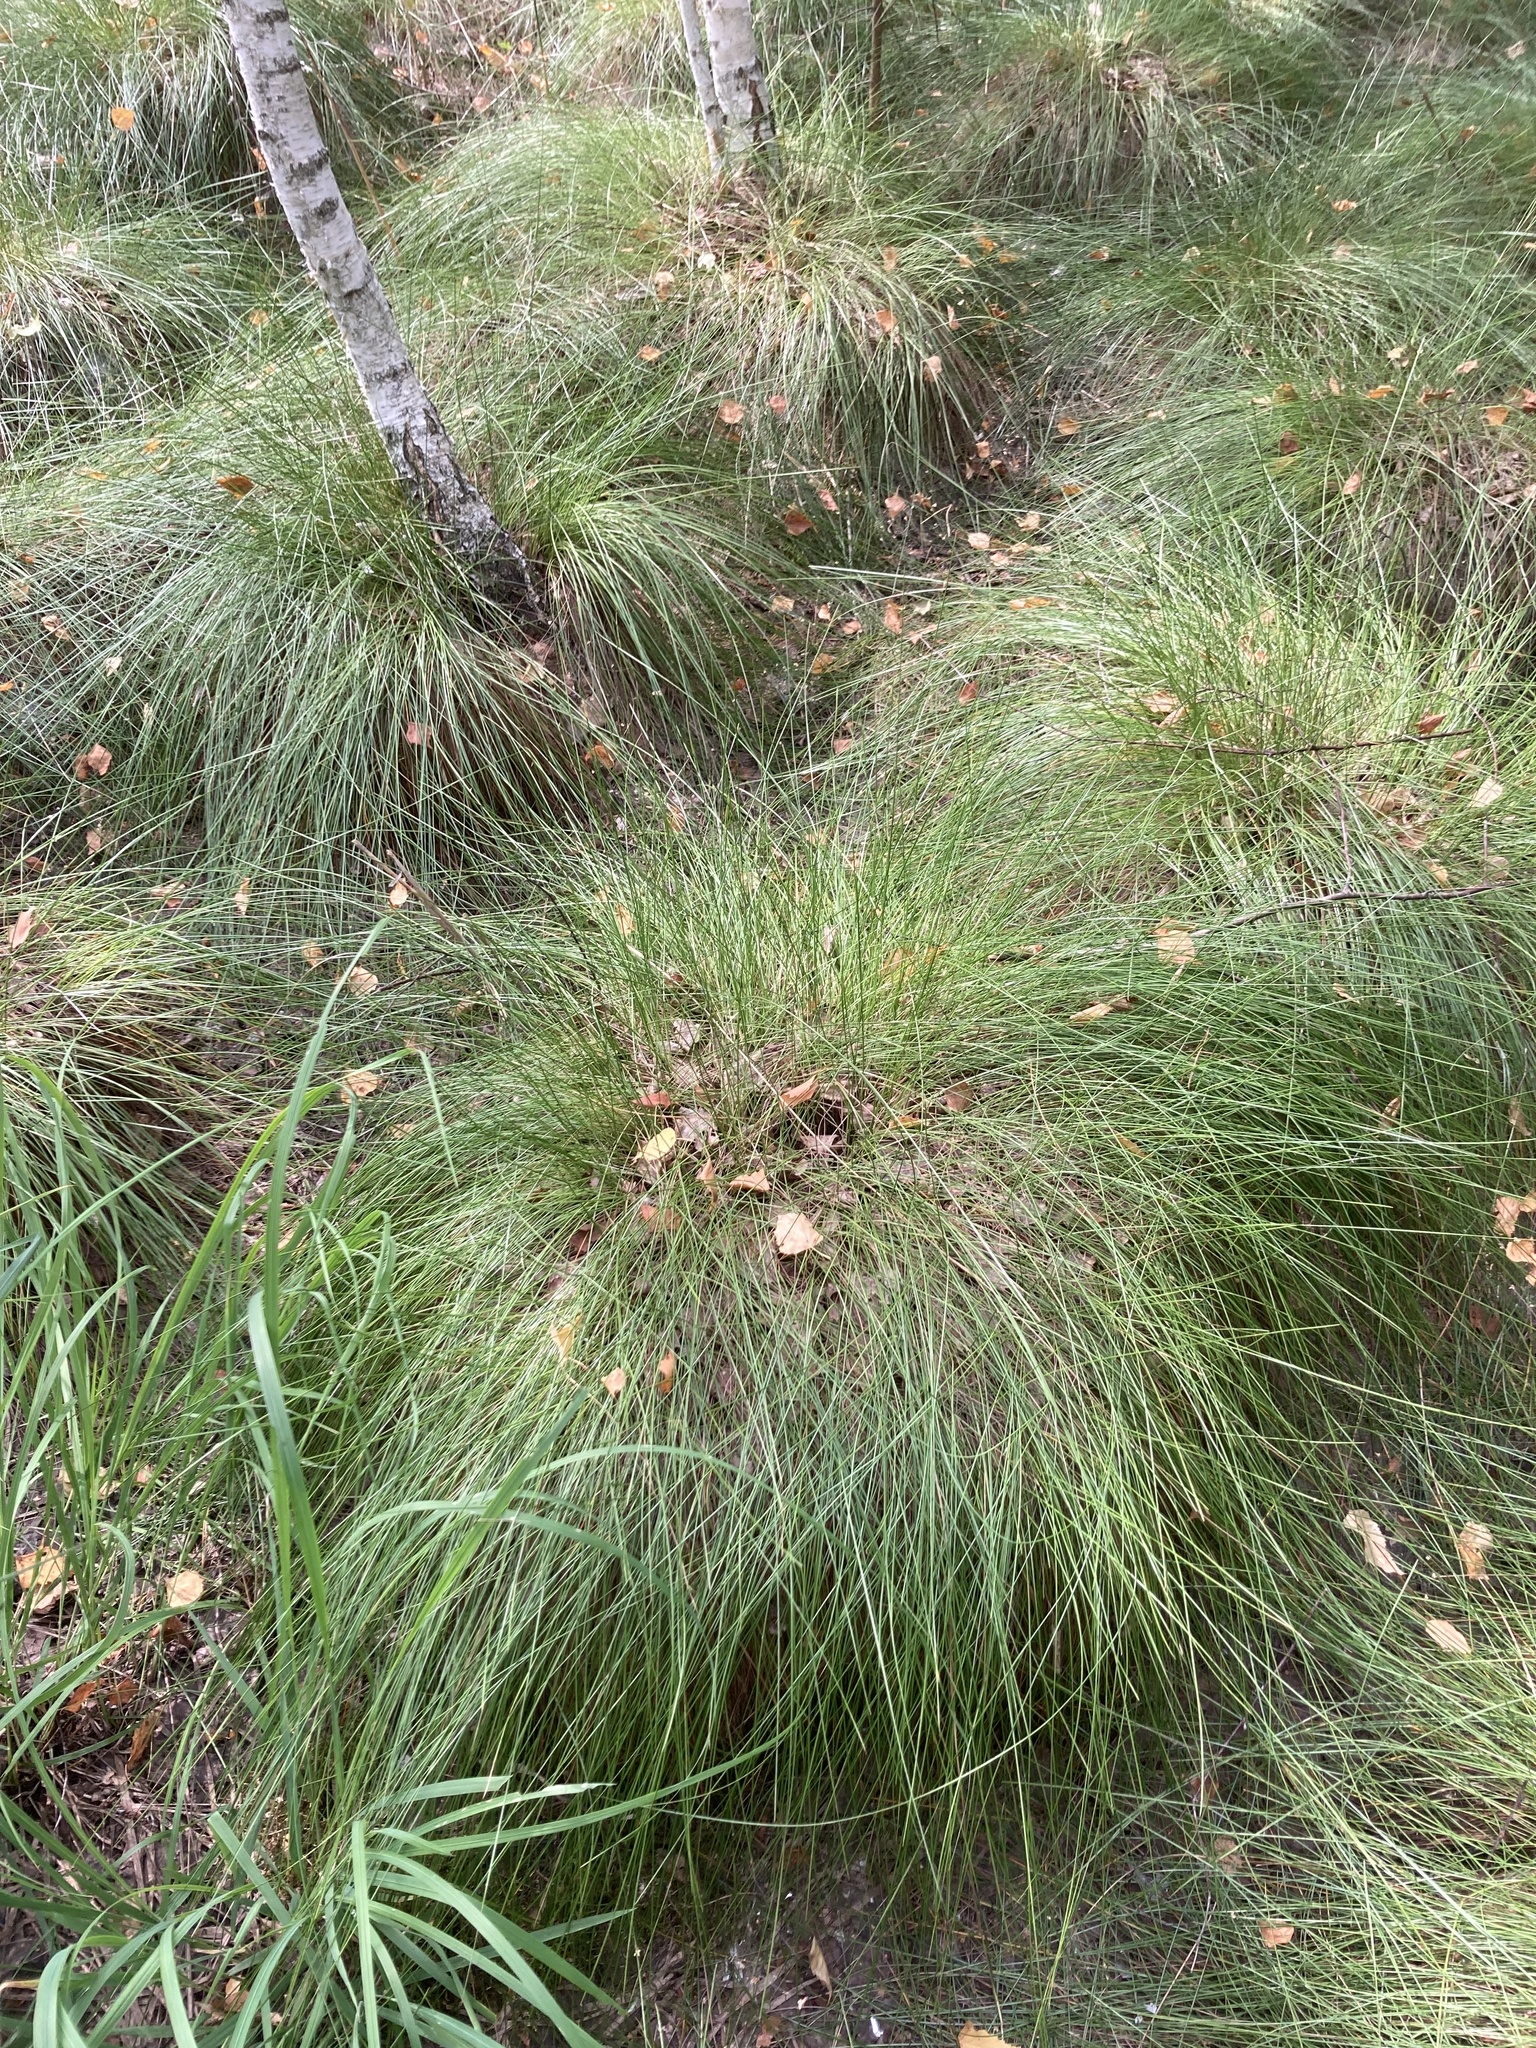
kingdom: Plantae
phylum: Tracheophyta
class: Liliopsida
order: Poales
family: Cyperaceae
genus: Eriophorum
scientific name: Eriophorum vaginatum
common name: Hare's-tail cottongrass
